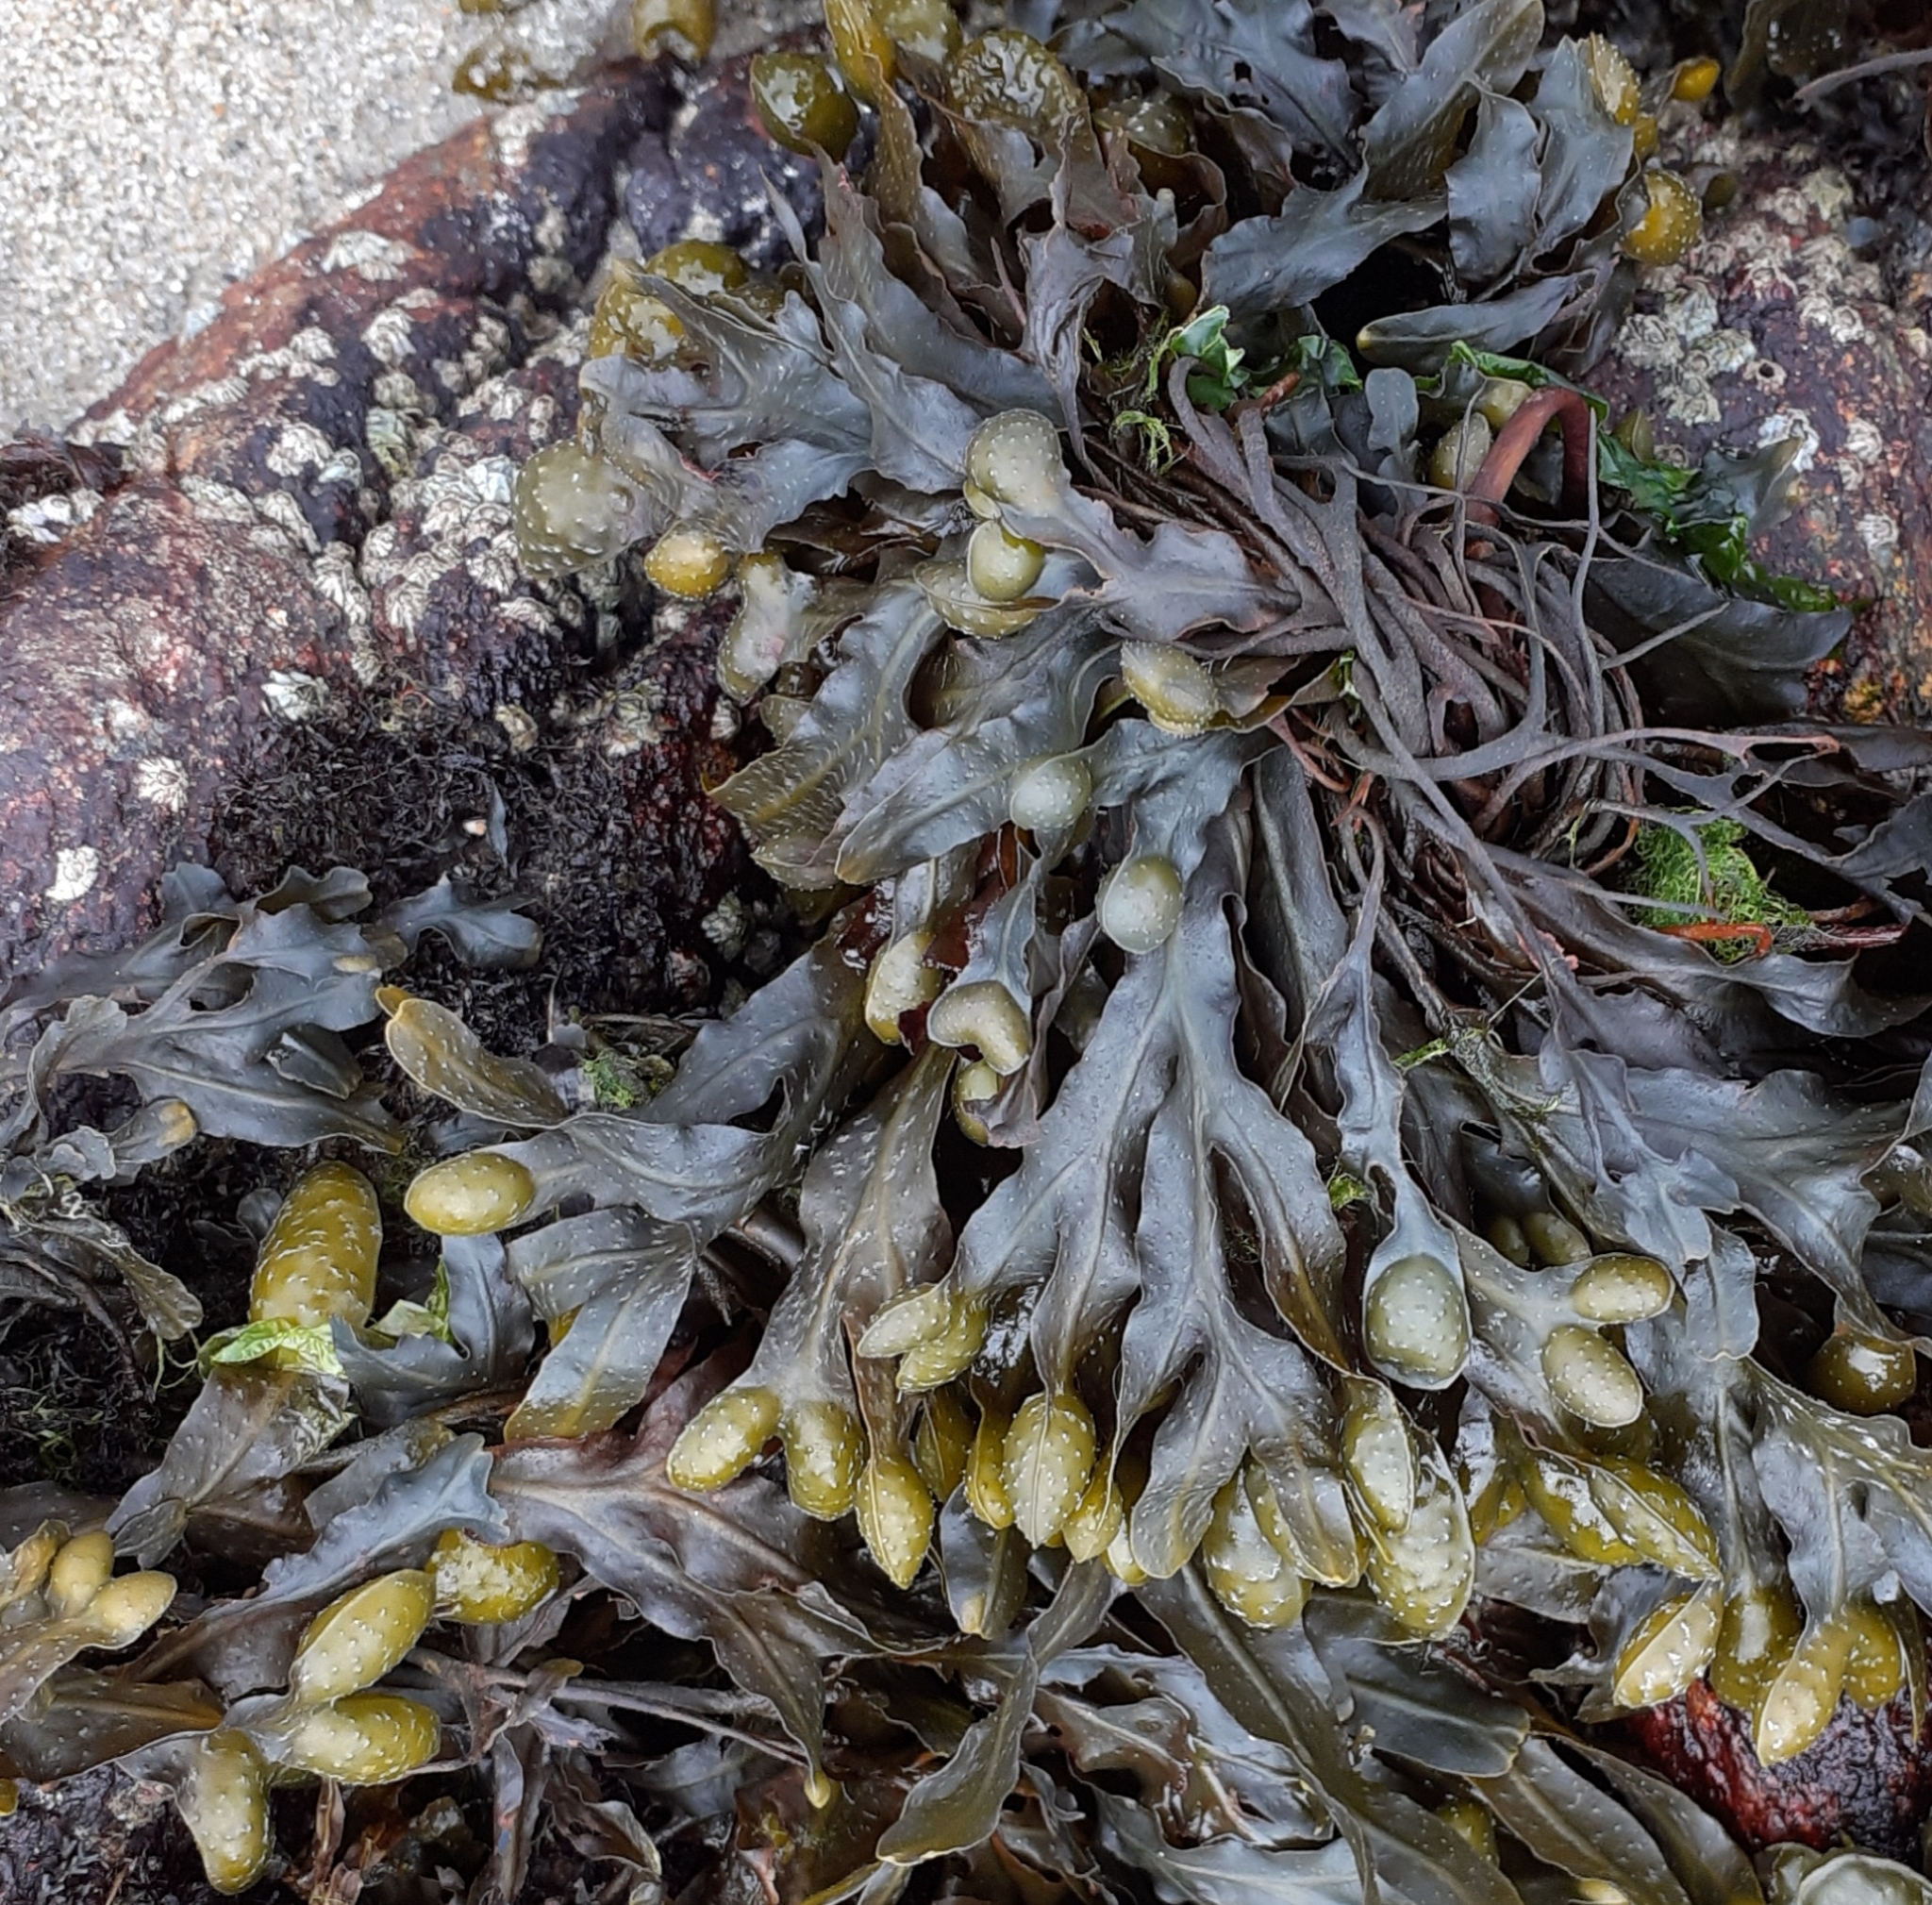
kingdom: Chromista
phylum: Ochrophyta
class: Phaeophyceae
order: Fucales
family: Fucaceae
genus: Fucus
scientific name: Fucus spiralis
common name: Spiral wrack
